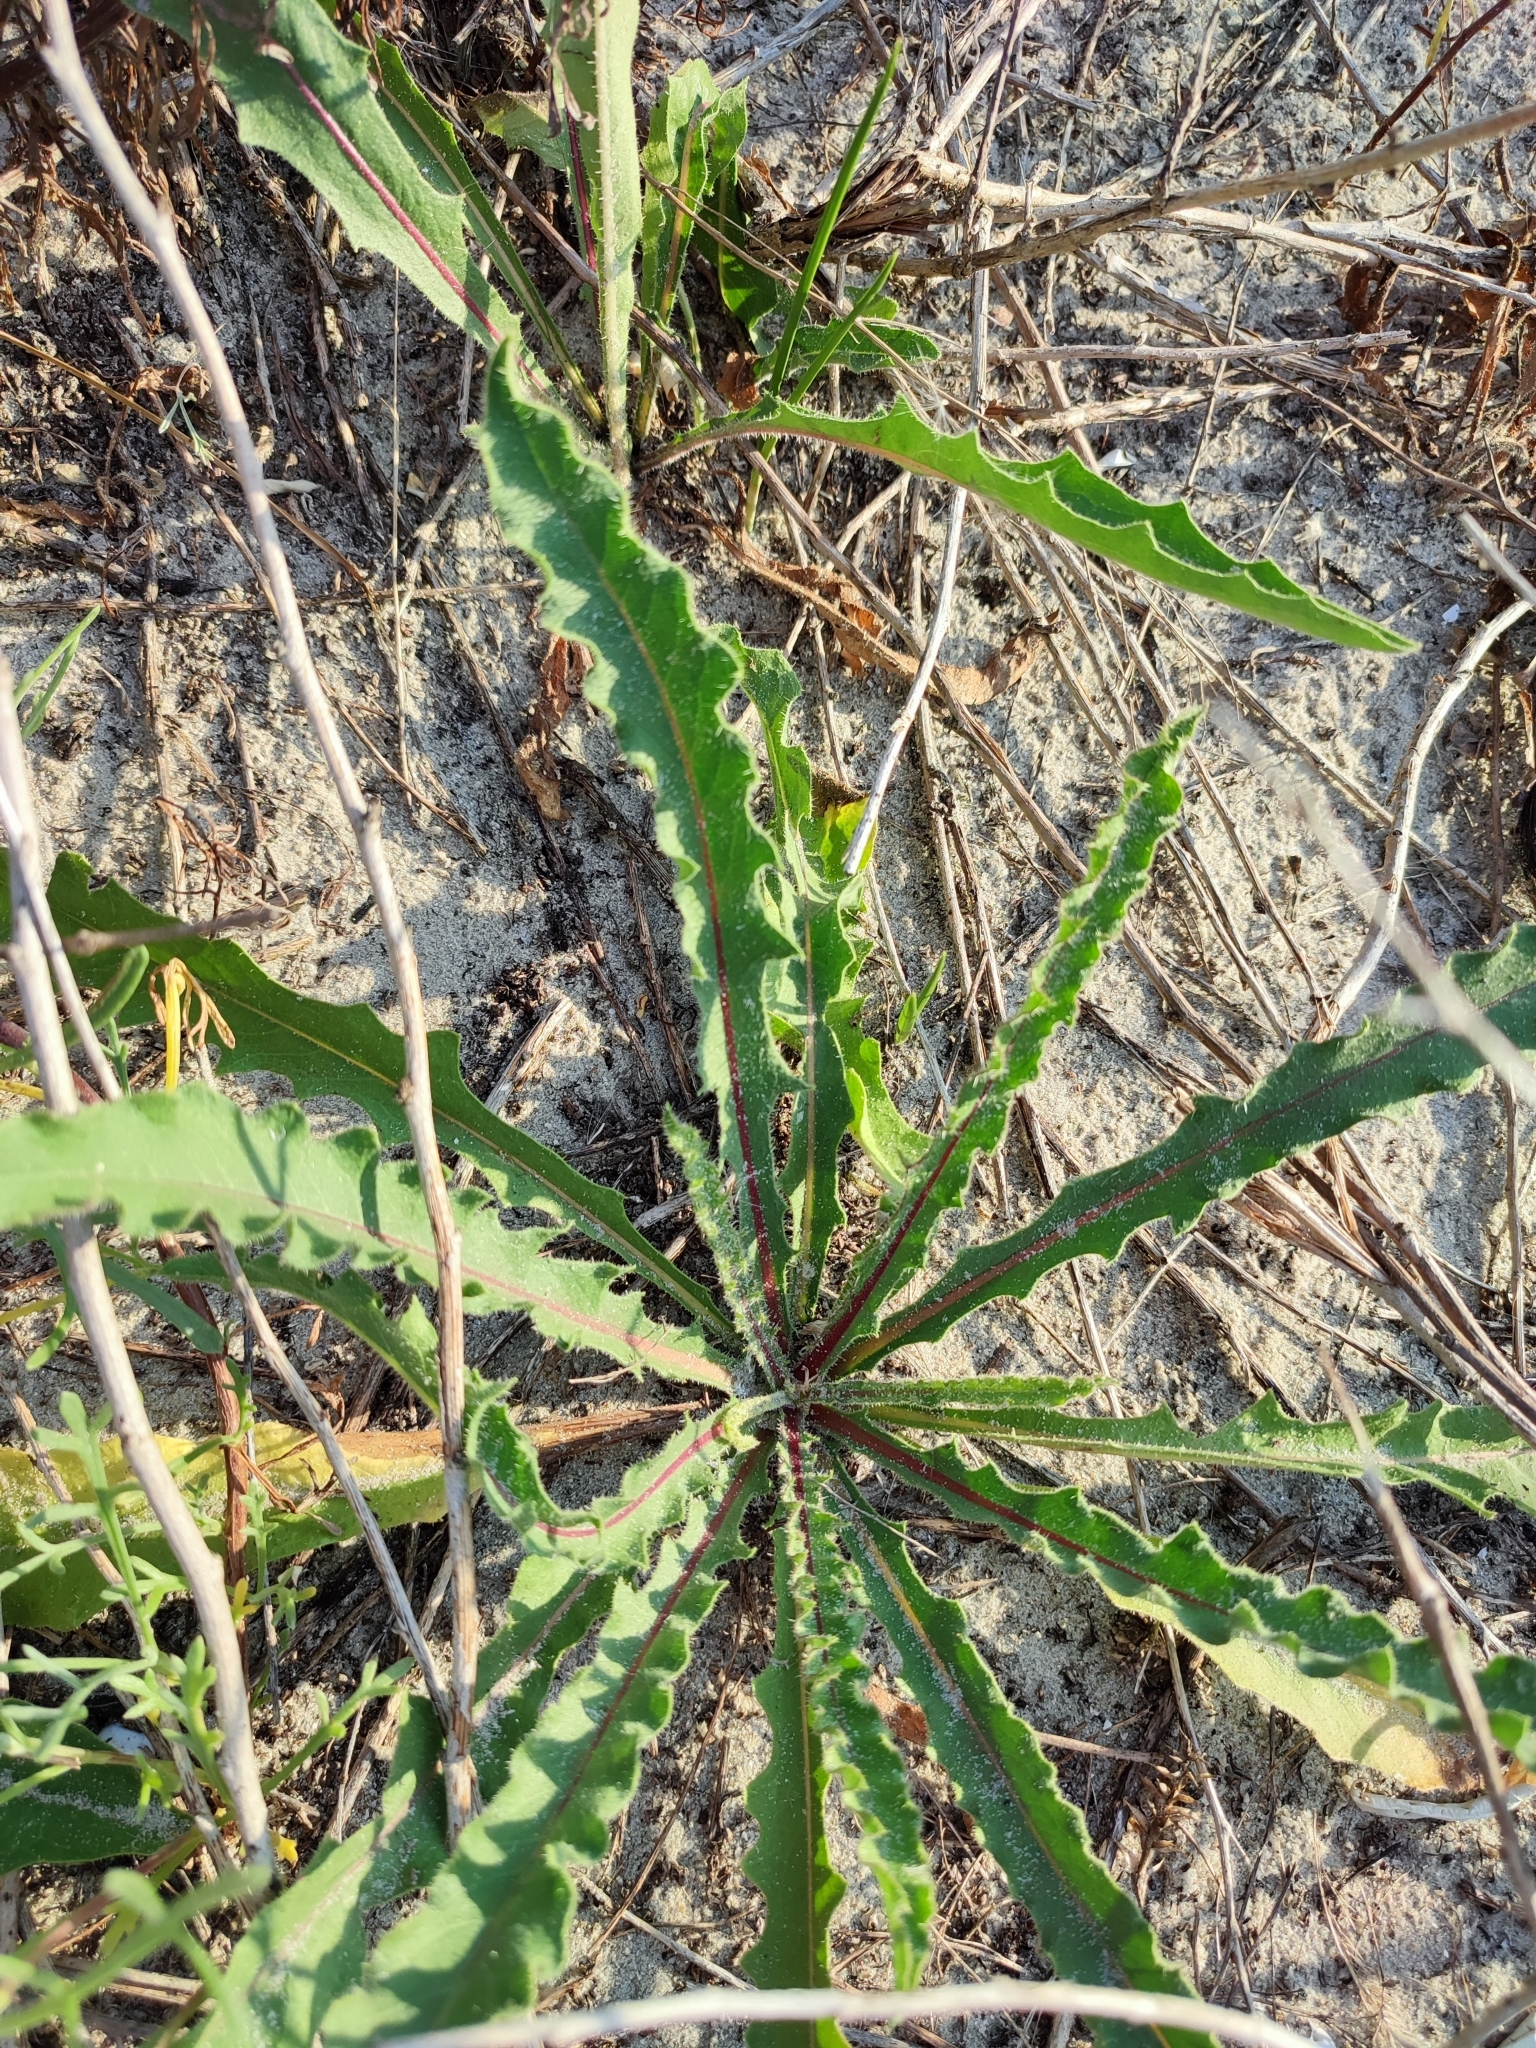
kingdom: Plantae
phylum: Tracheophyta
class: Magnoliopsida
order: Asterales
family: Asteraceae
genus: Picris
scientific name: Picris hieracioides
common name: Hawkweed oxtongue
